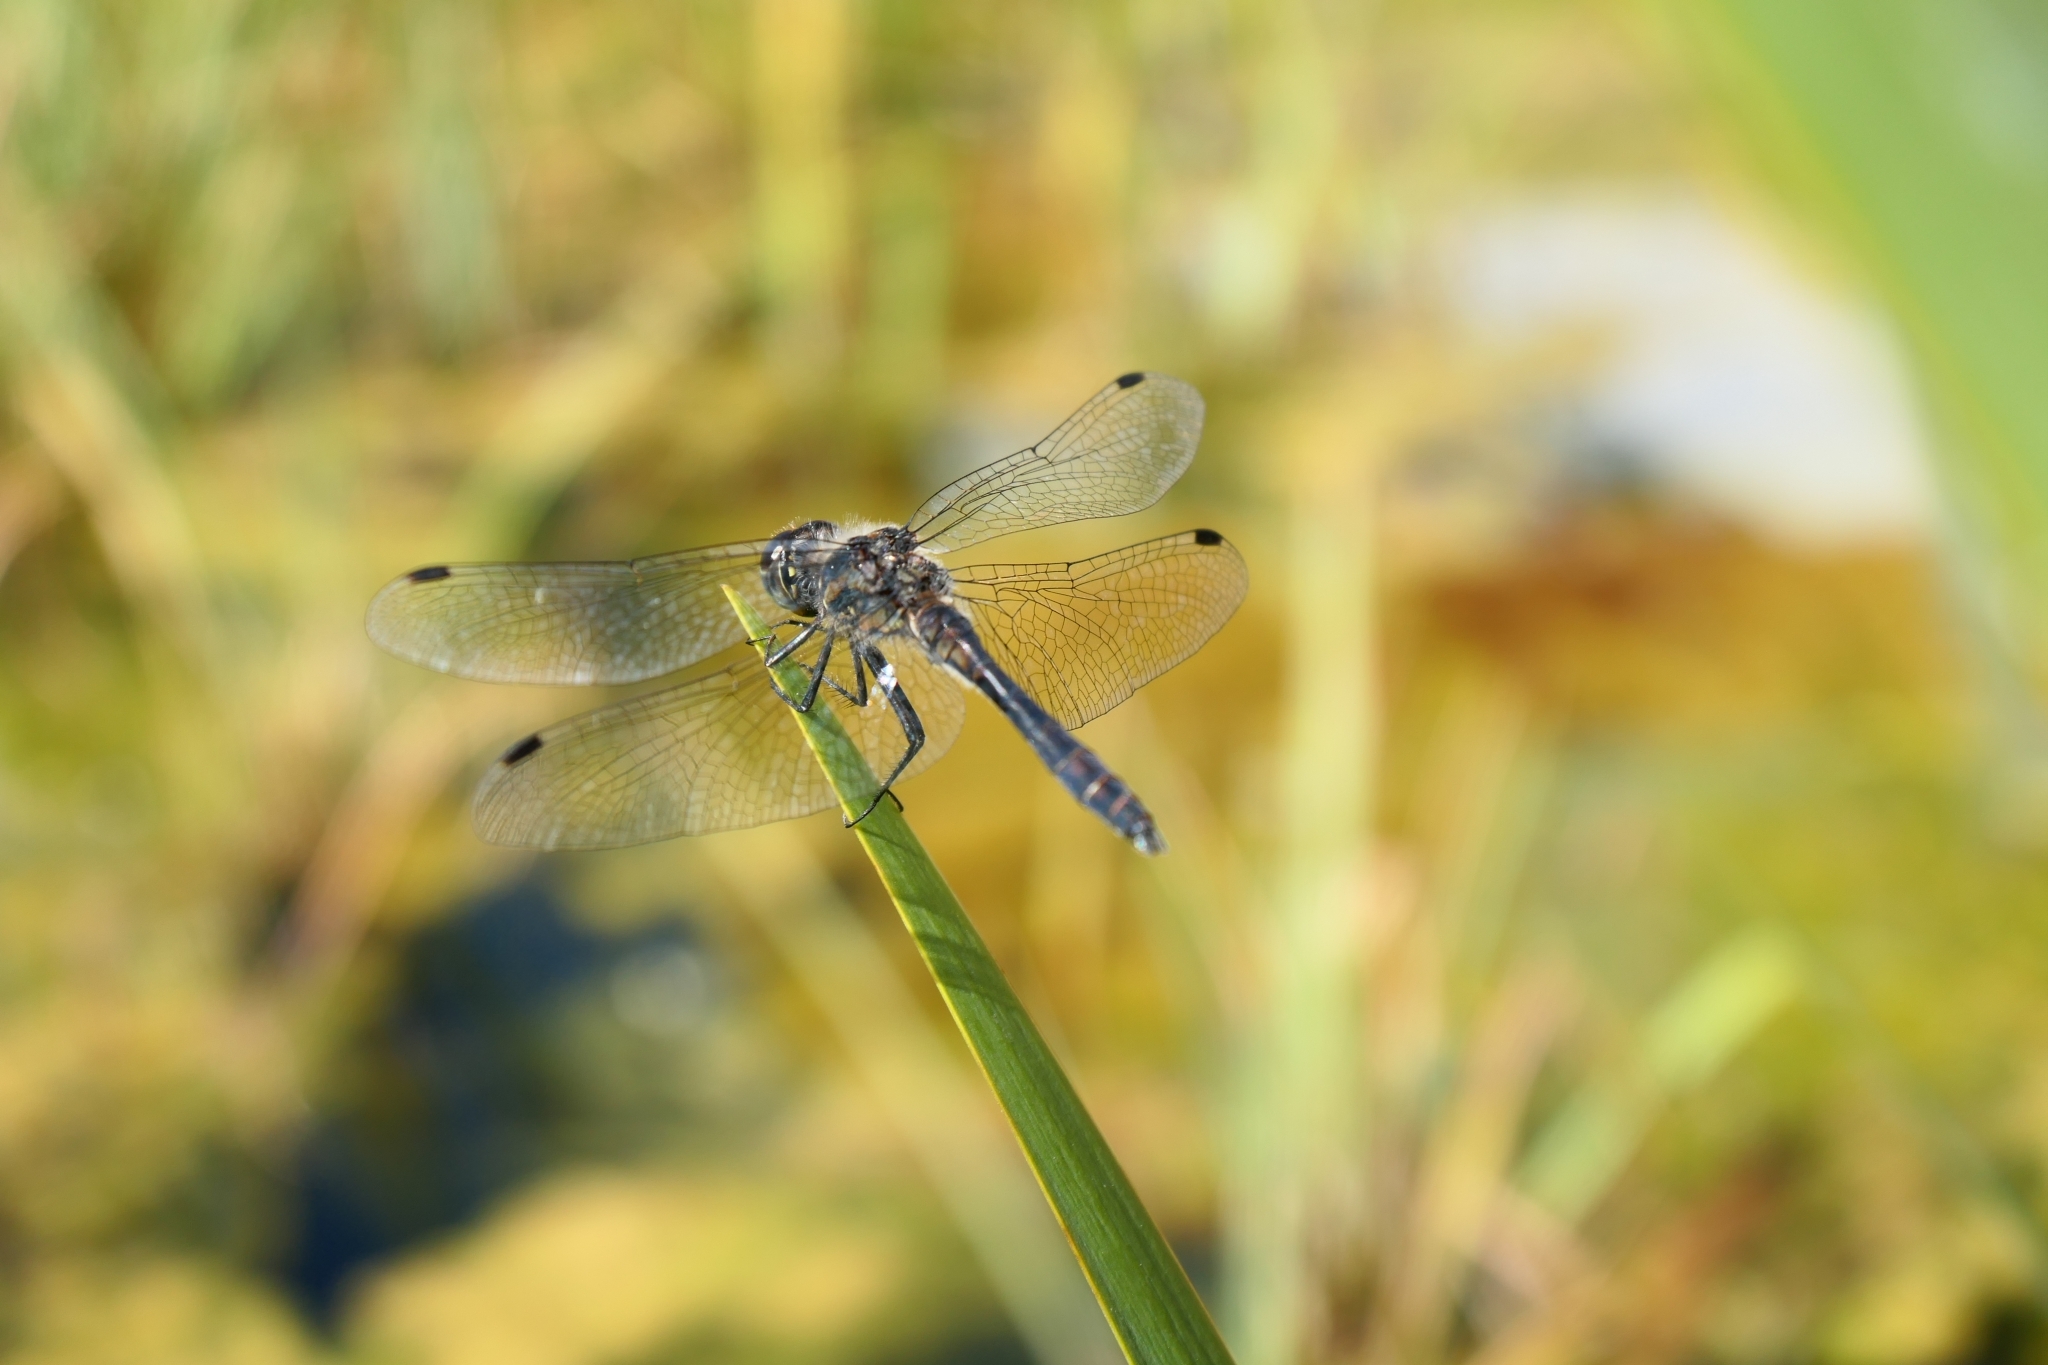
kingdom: Animalia
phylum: Arthropoda
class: Insecta
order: Odonata
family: Libellulidae
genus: Sympetrum
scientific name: Sympetrum danae
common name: Black darter
